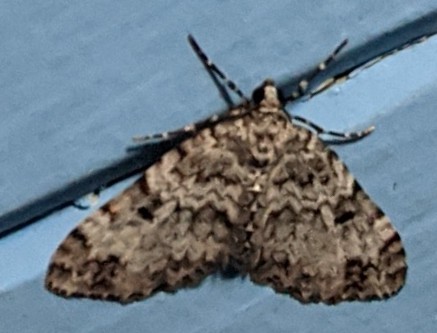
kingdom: Animalia
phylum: Arthropoda
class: Insecta
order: Lepidoptera
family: Geometridae
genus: Spargania
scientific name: Spargania magnoliata
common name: Double-banded carpet
